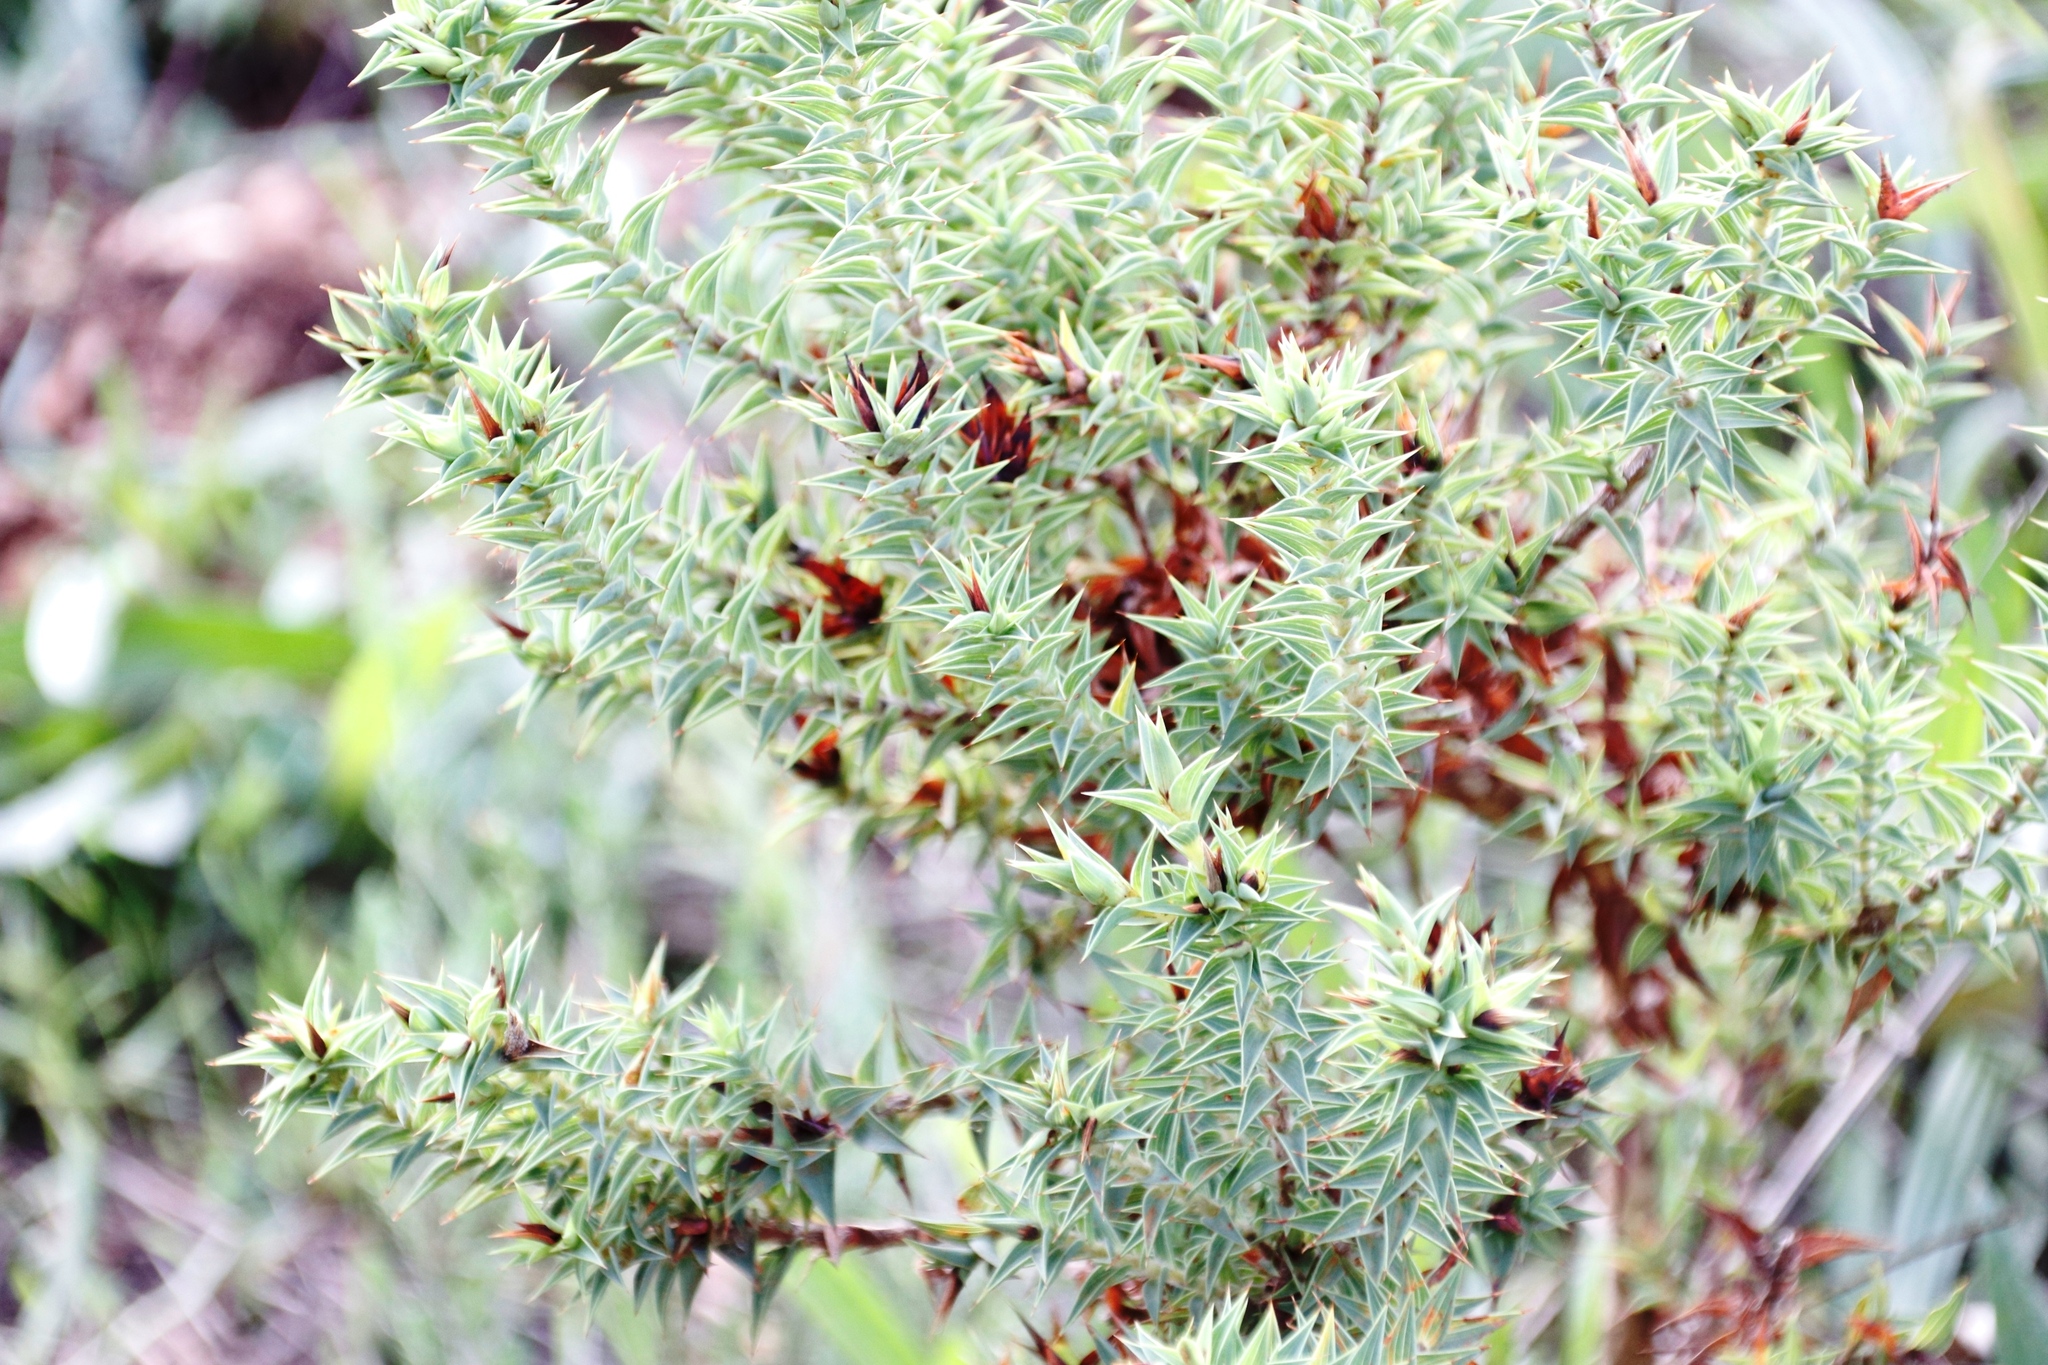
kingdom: Plantae
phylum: Tracheophyta
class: Magnoliopsida
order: Fabales
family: Fabaceae
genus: Aspalathus
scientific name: Aspalathus cordata
